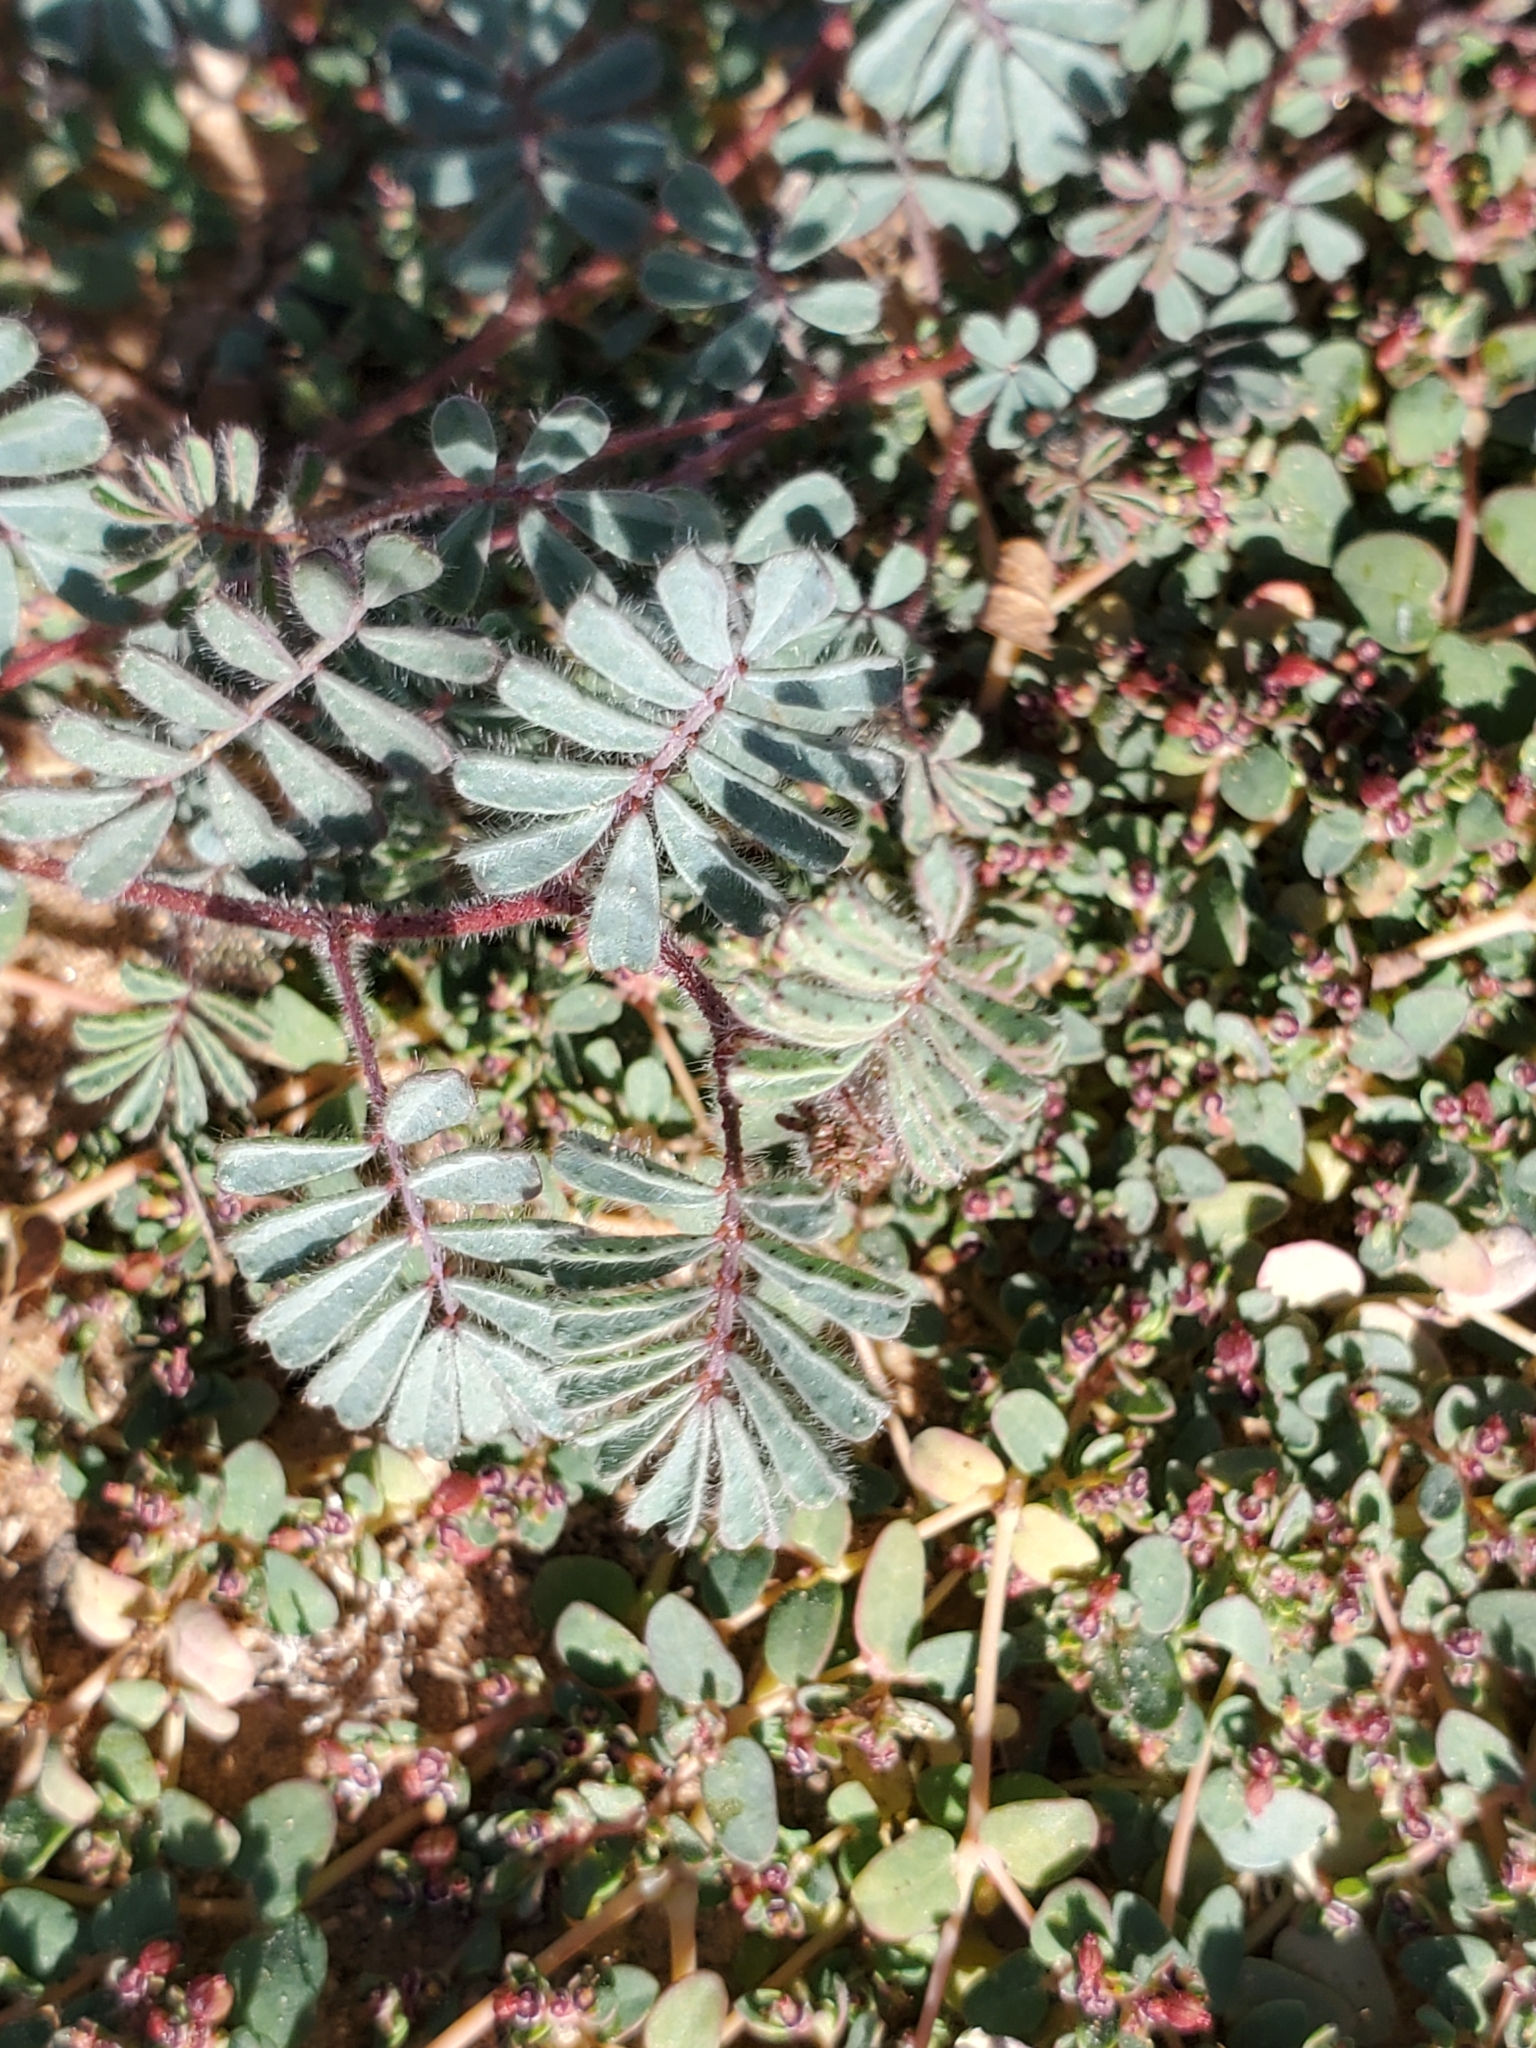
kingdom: Plantae
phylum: Tracheophyta
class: Magnoliopsida
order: Fabales
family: Fabaceae
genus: Dalea
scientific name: Dalea mollissima
